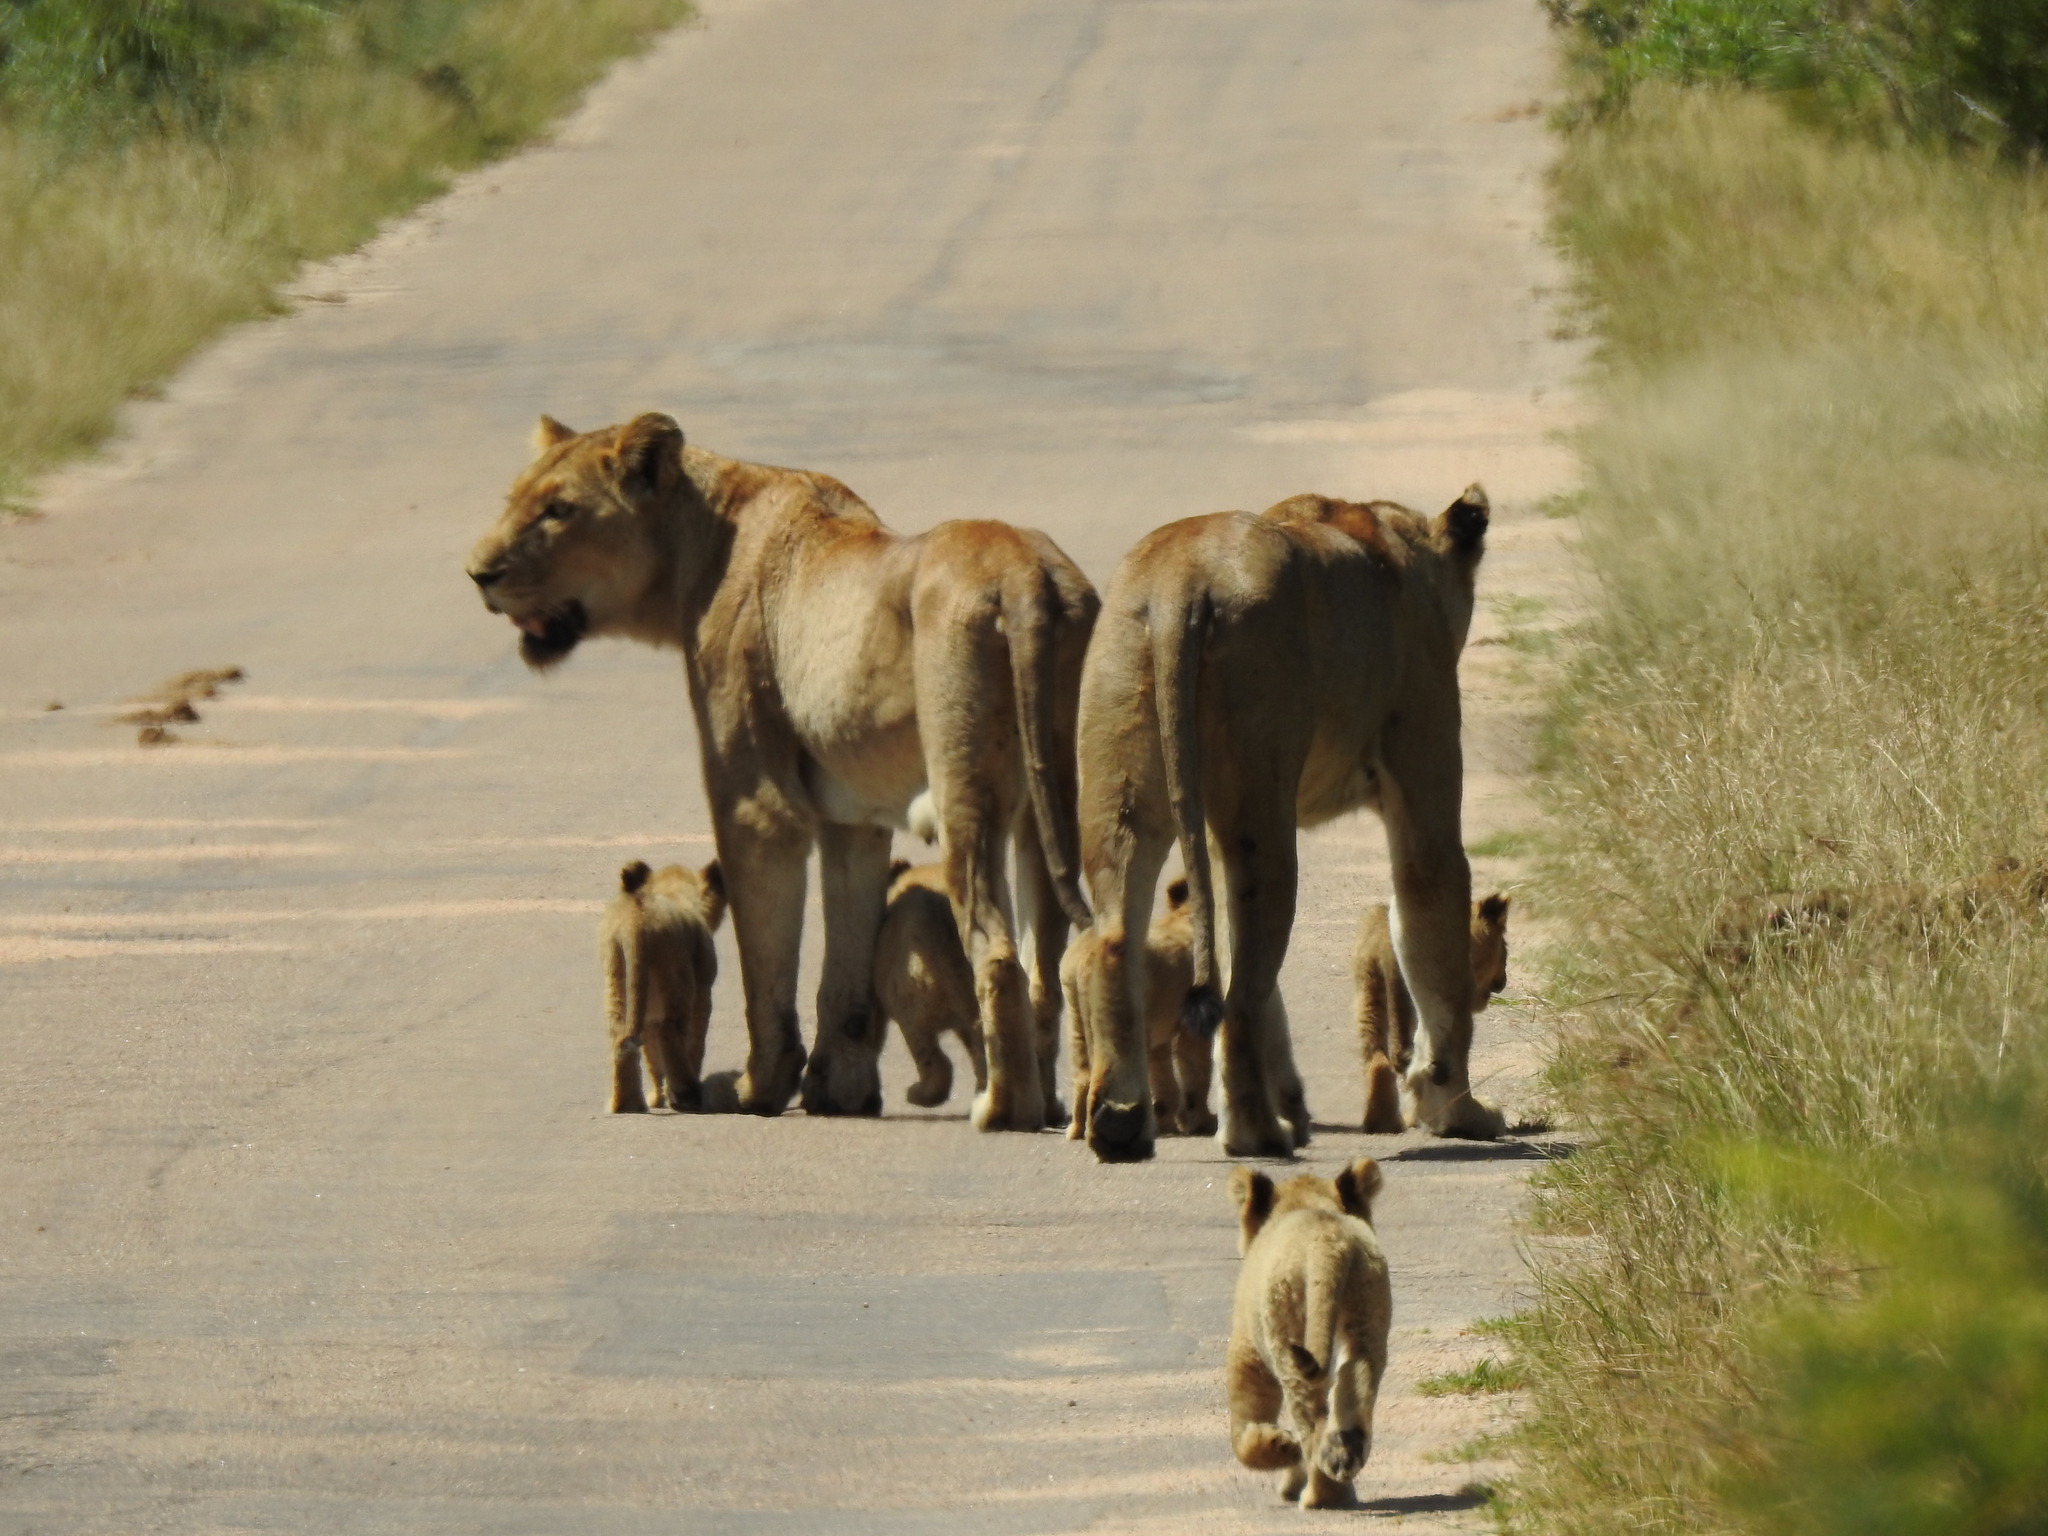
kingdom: Animalia
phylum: Chordata
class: Mammalia
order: Carnivora
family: Felidae
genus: Panthera
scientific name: Panthera leo
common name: Lion
